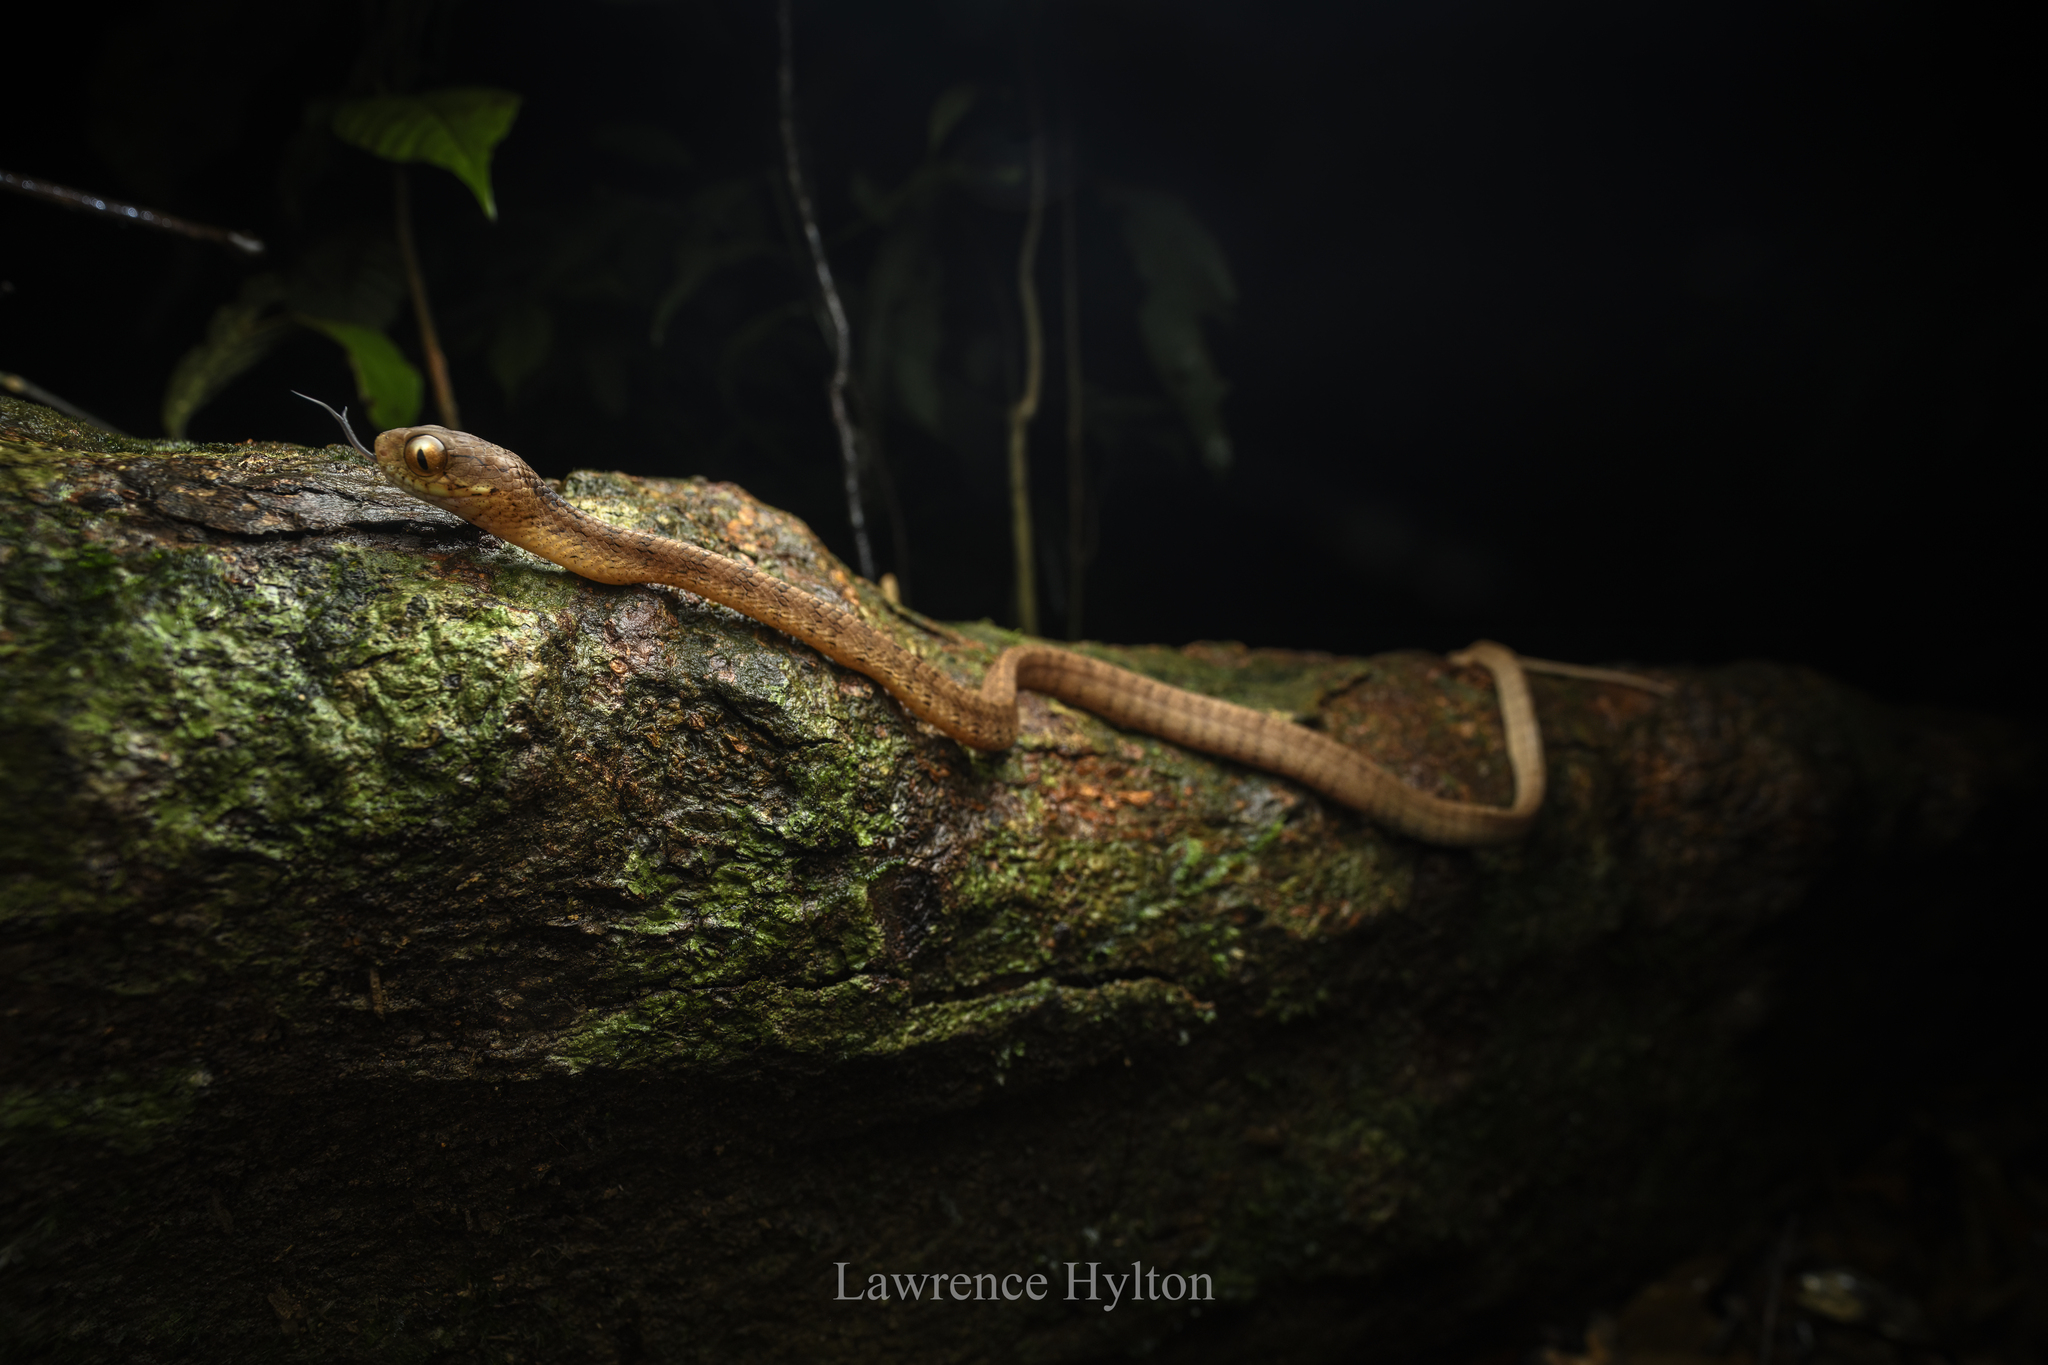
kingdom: Animalia
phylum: Chordata
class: Squamata
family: Pareidae
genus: Pareas
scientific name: Pareas carinatus
